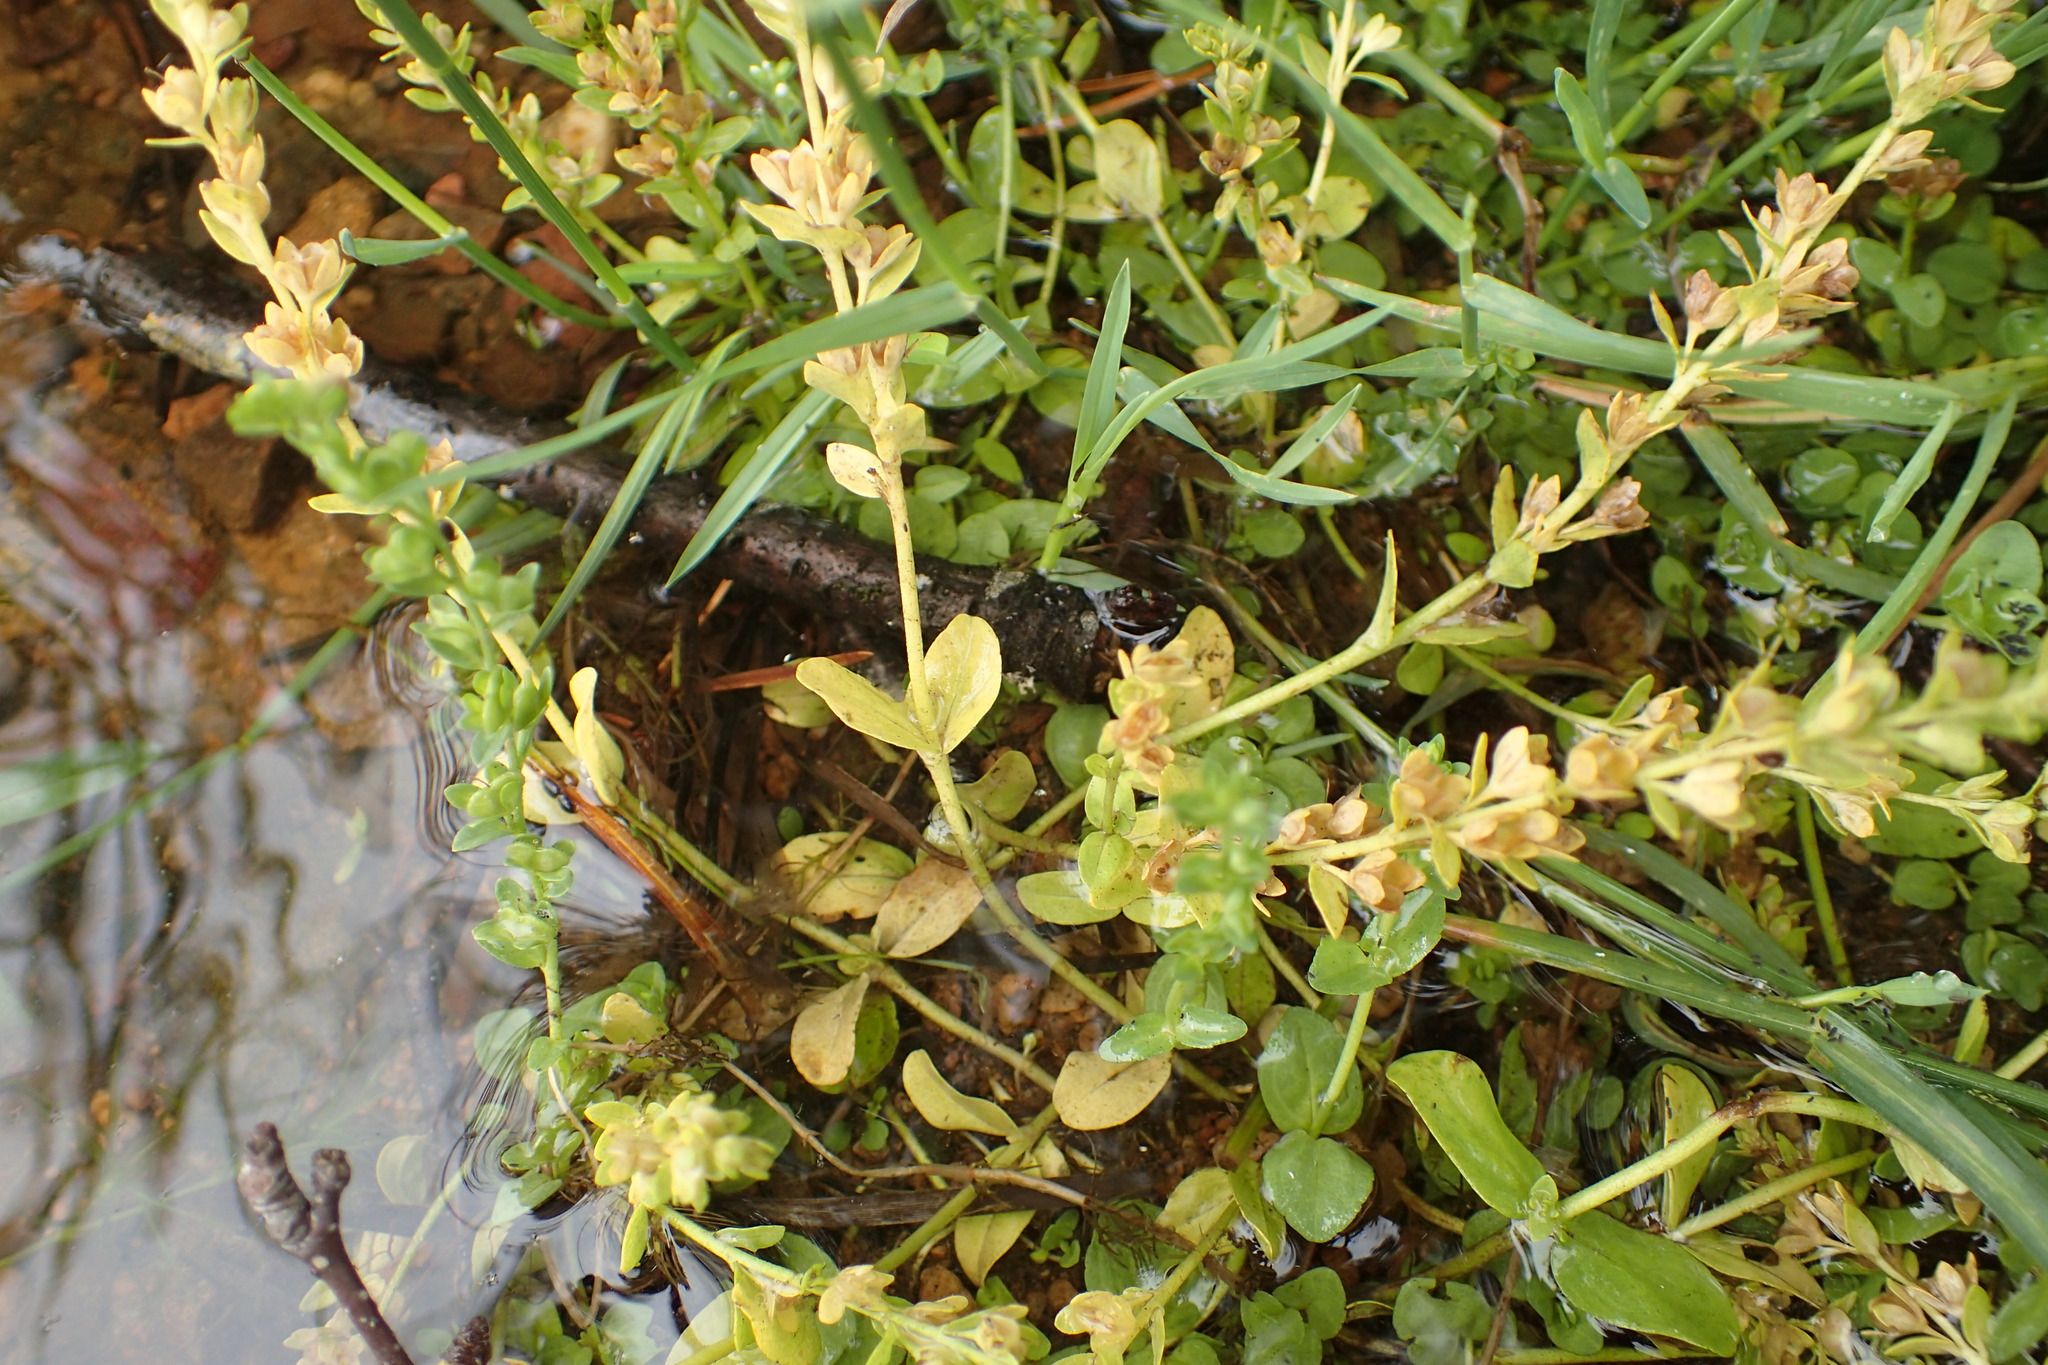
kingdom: Plantae
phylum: Tracheophyta
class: Magnoliopsida
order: Lamiales
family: Plantaginaceae
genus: Veronica
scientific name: Veronica serpyllifolia
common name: Thyme-leaved speedwell
